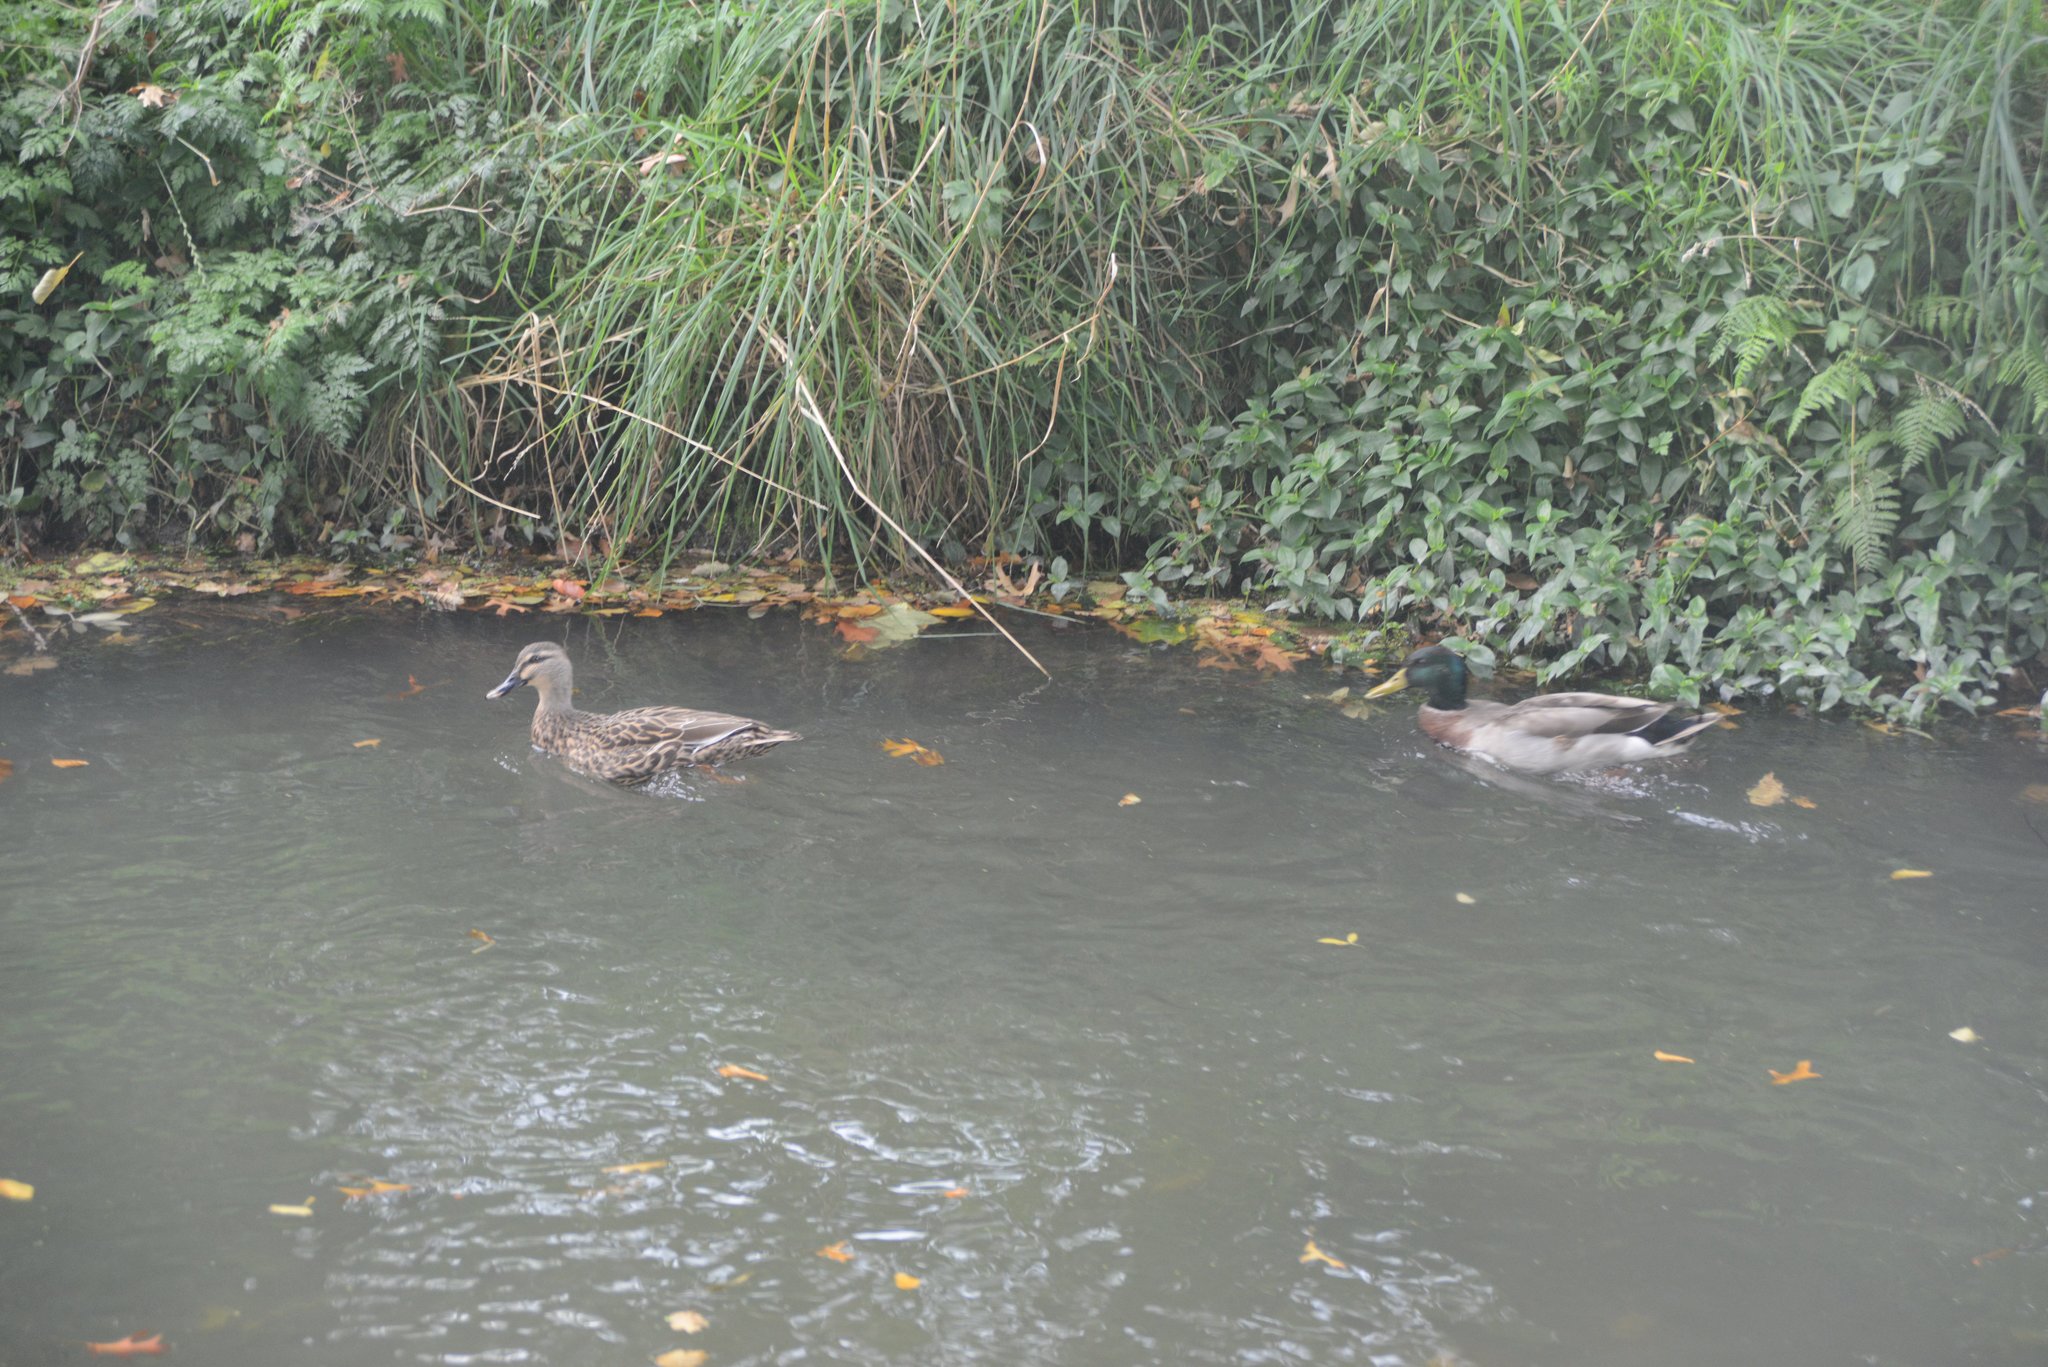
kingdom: Animalia
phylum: Chordata
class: Aves
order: Anseriformes
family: Anatidae
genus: Anas
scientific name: Anas platyrhynchos
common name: Mallard
